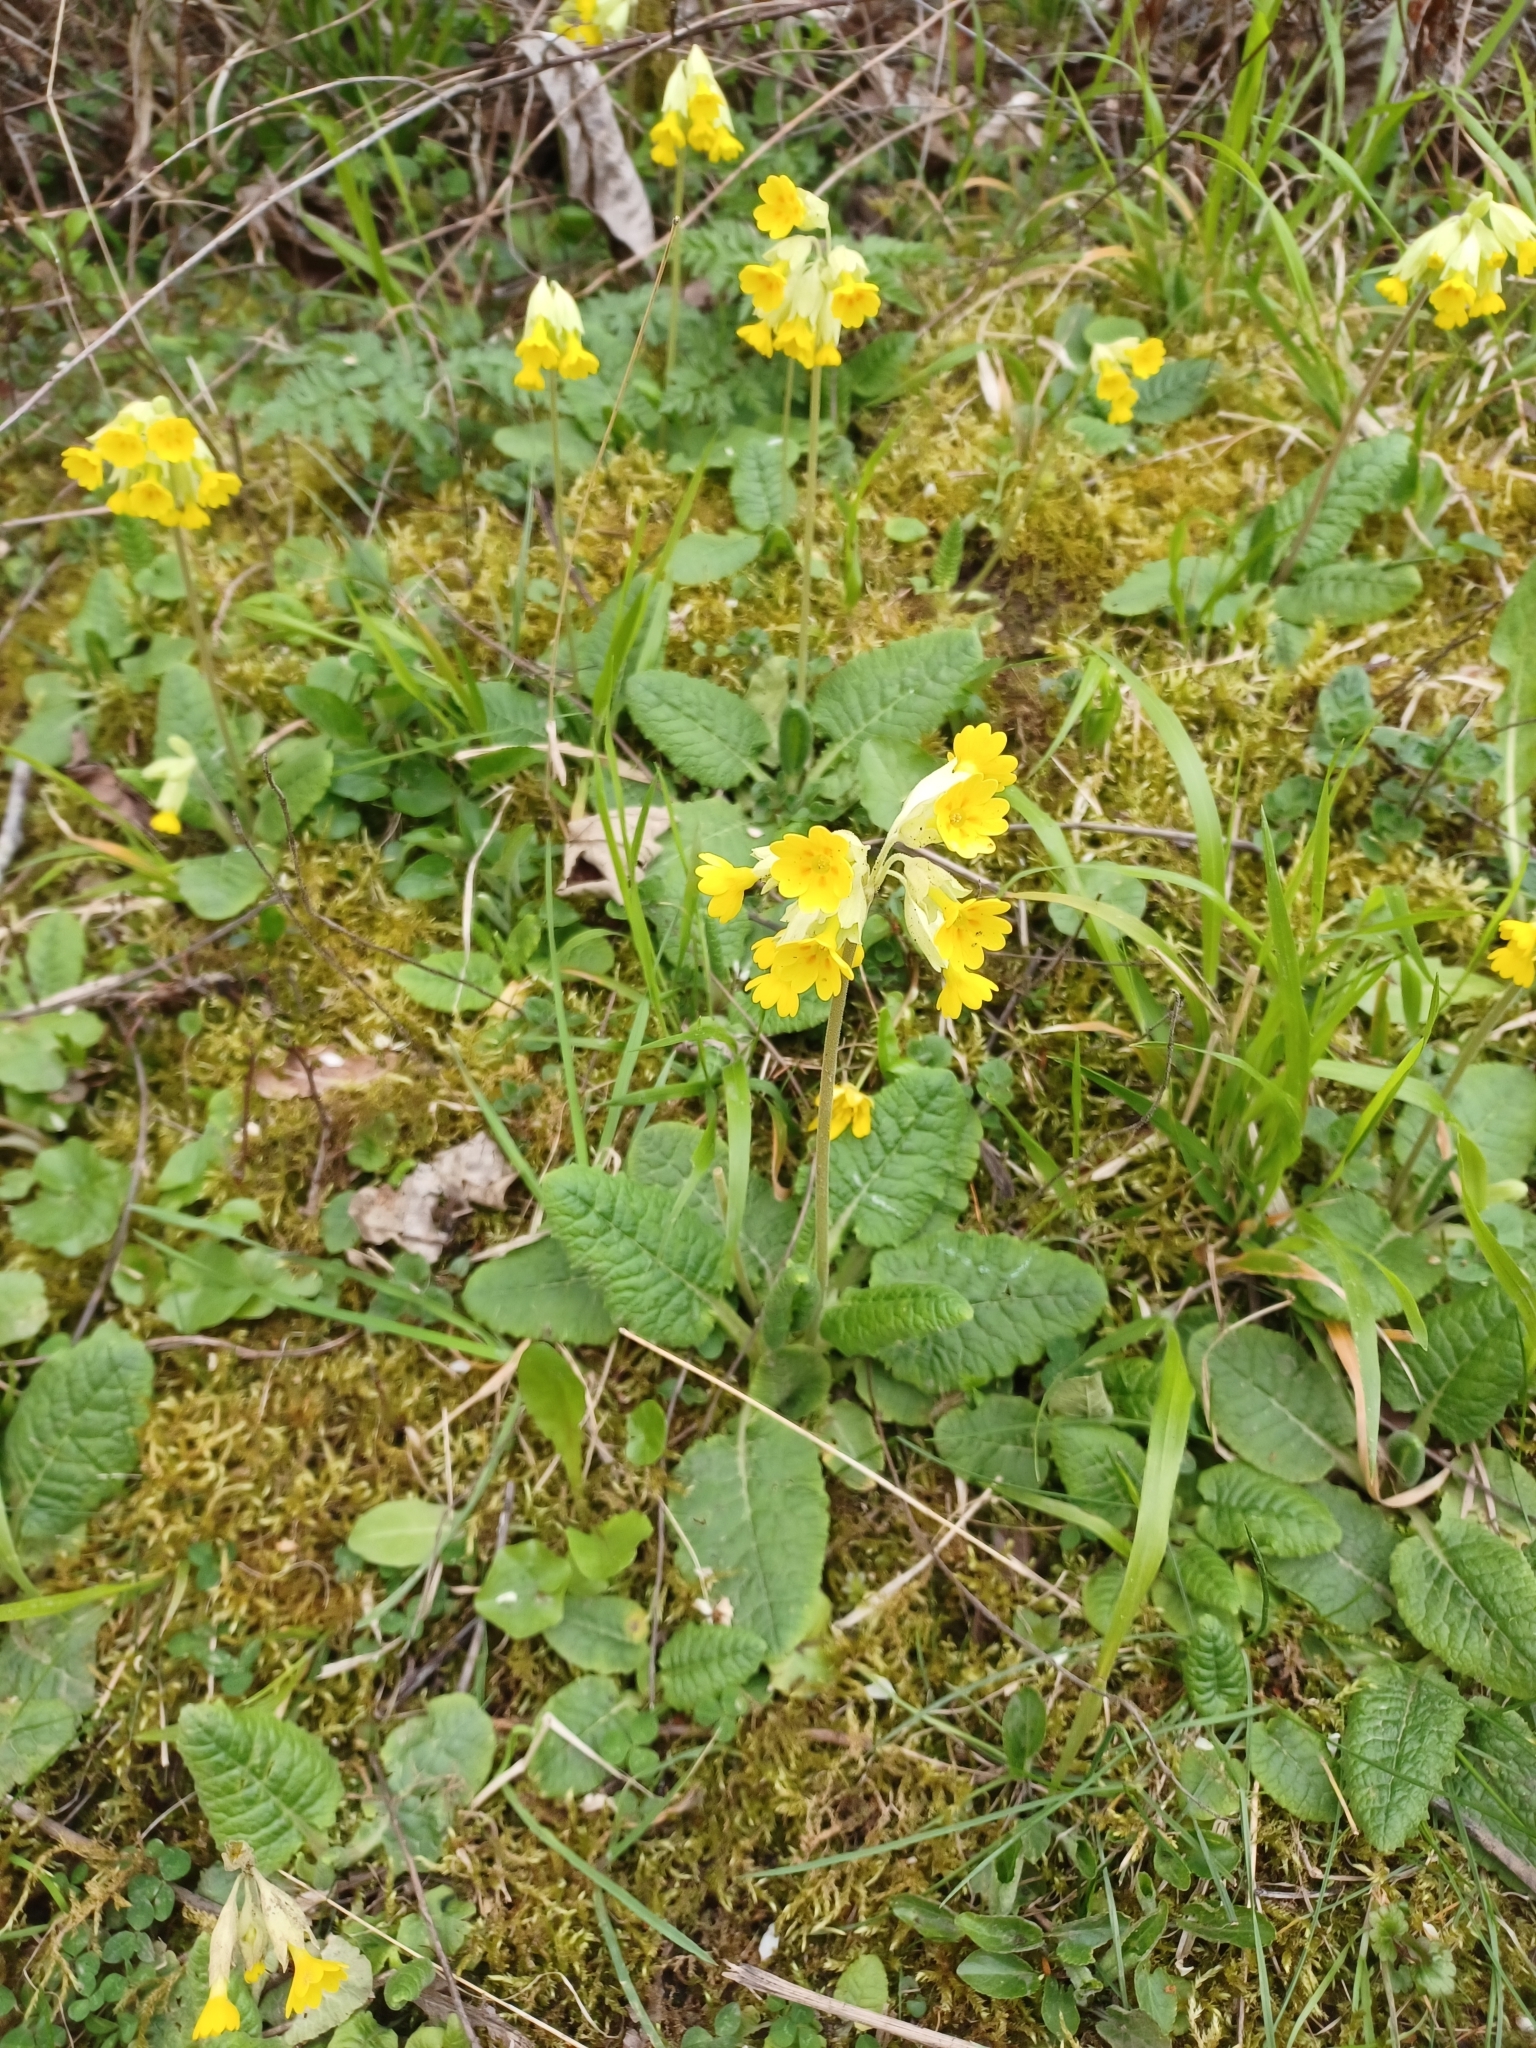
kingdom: Plantae
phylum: Tracheophyta
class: Magnoliopsida
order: Ericales
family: Primulaceae
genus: Primula
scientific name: Primula veris
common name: Cowslip
